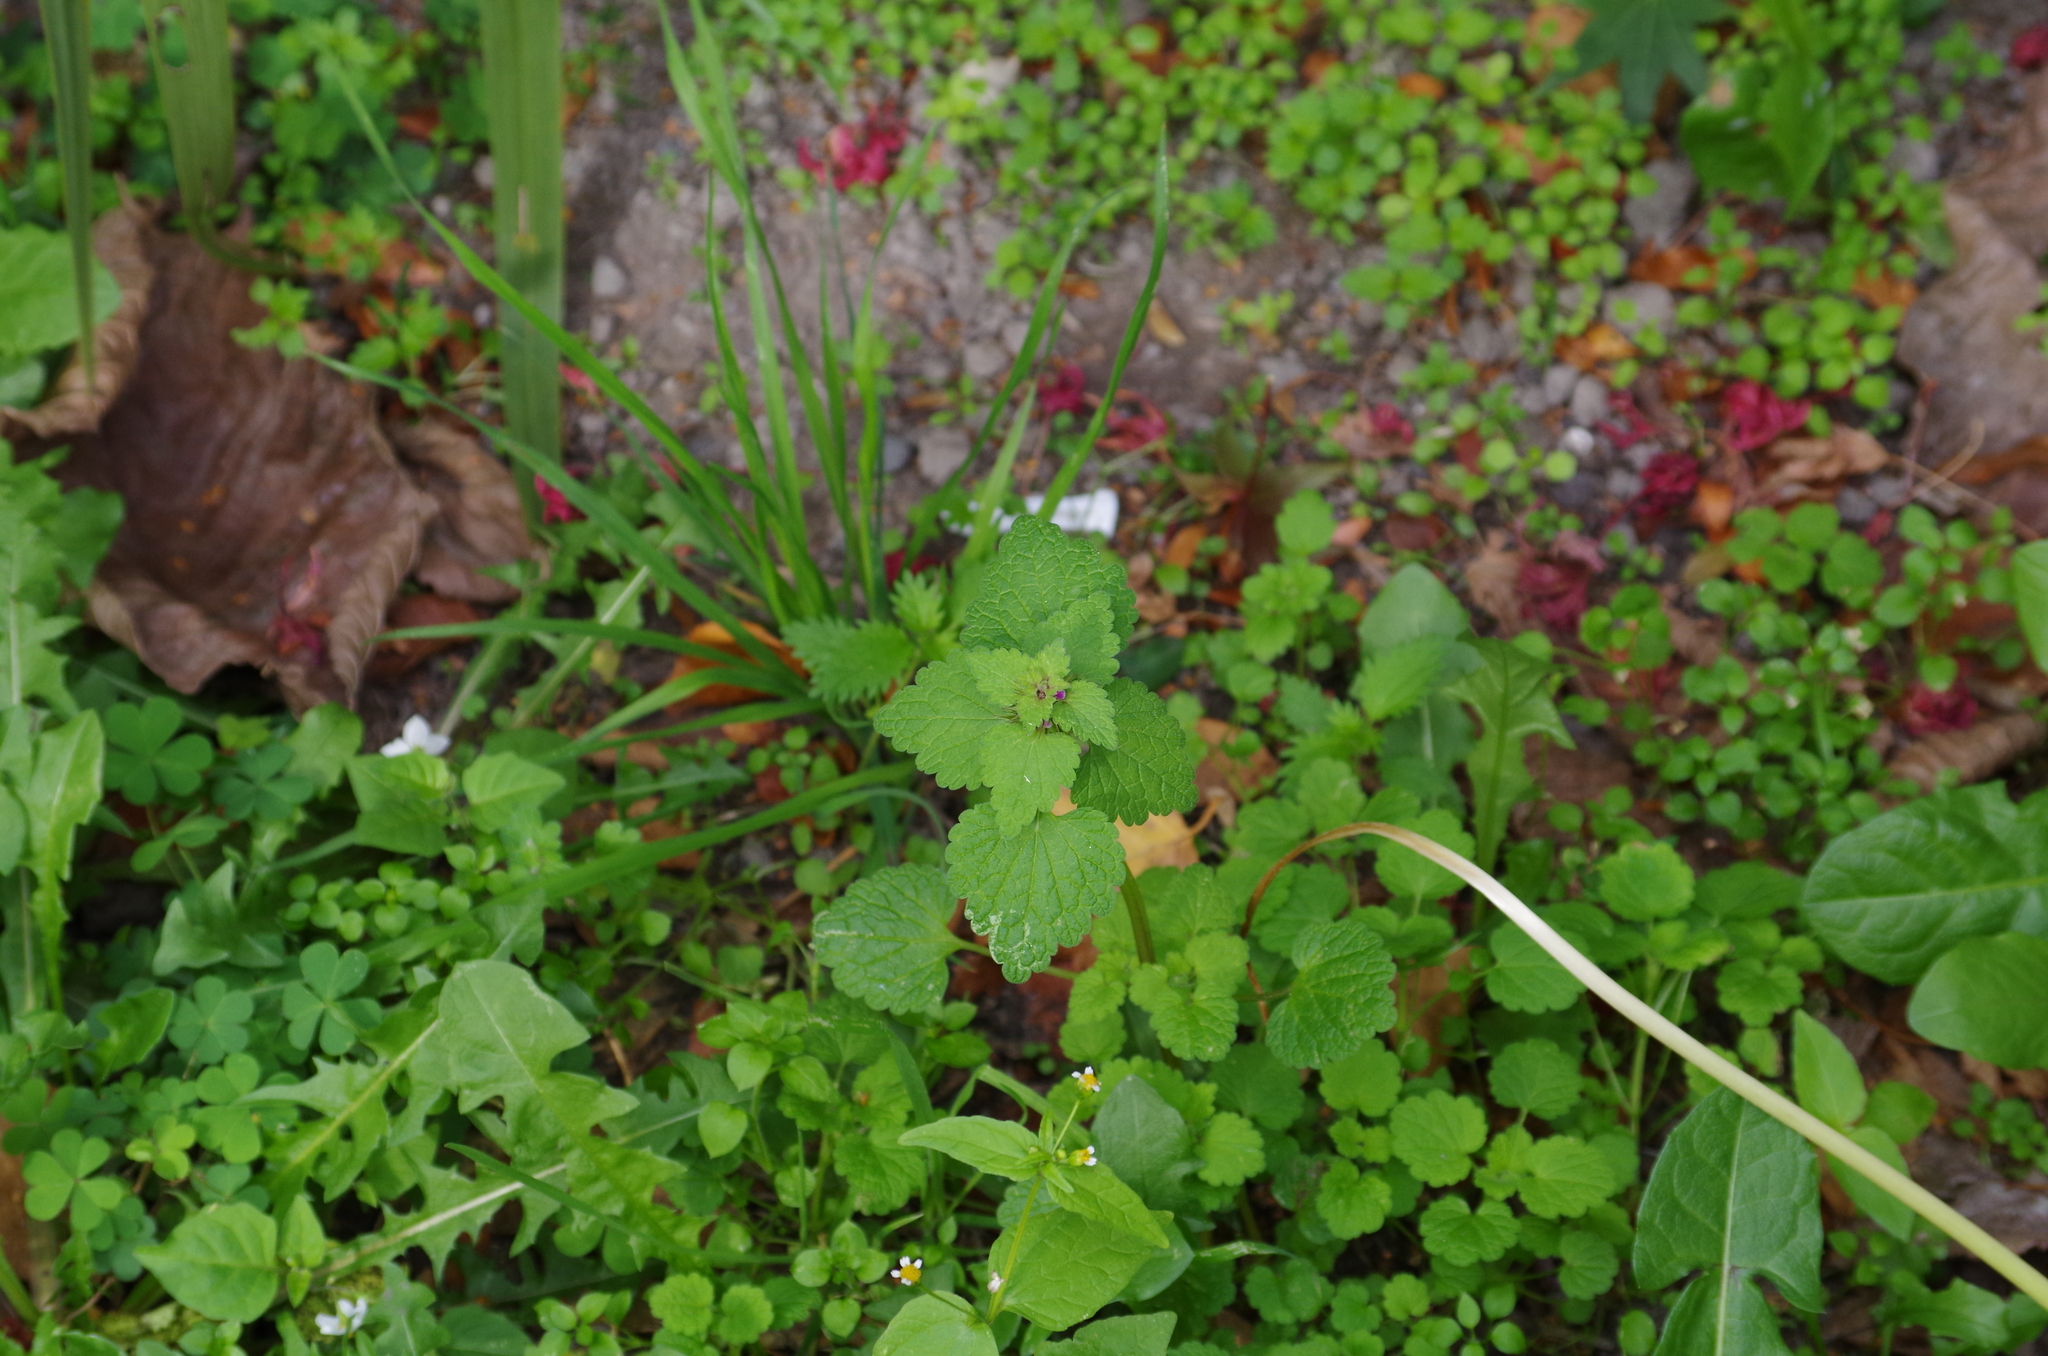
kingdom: Plantae
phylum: Tracheophyta
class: Magnoliopsida
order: Lamiales
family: Lamiaceae
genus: Lamium
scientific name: Lamium purpureum
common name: Red dead-nettle
